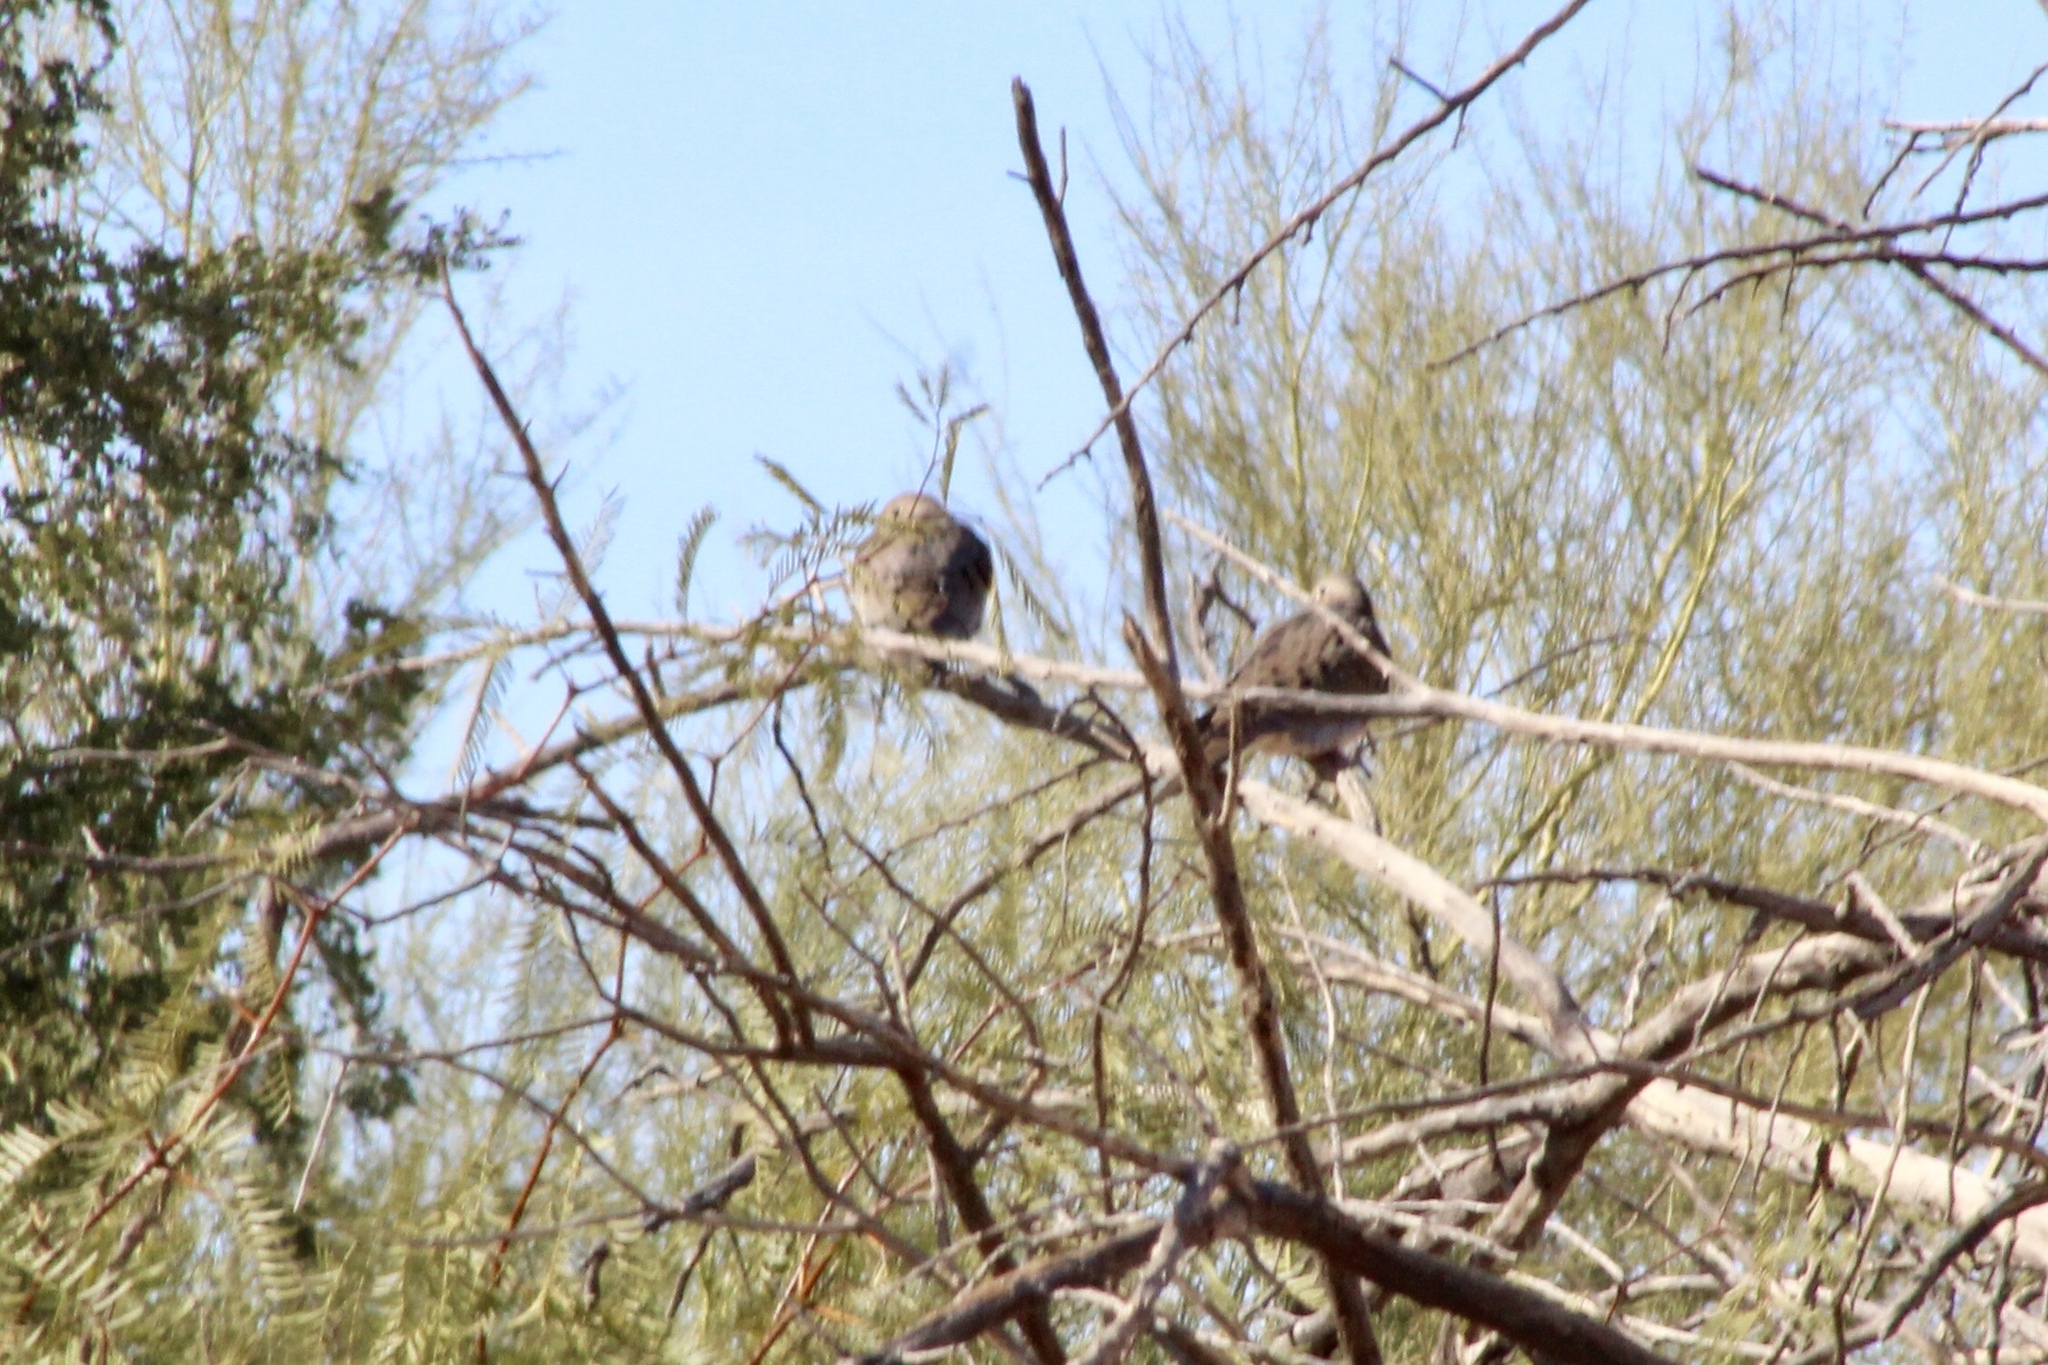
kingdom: Animalia
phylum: Chordata
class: Aves
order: Columbiformes
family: Columbidae
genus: Zenaida
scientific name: Zenaida macroura
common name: Mourning dove
